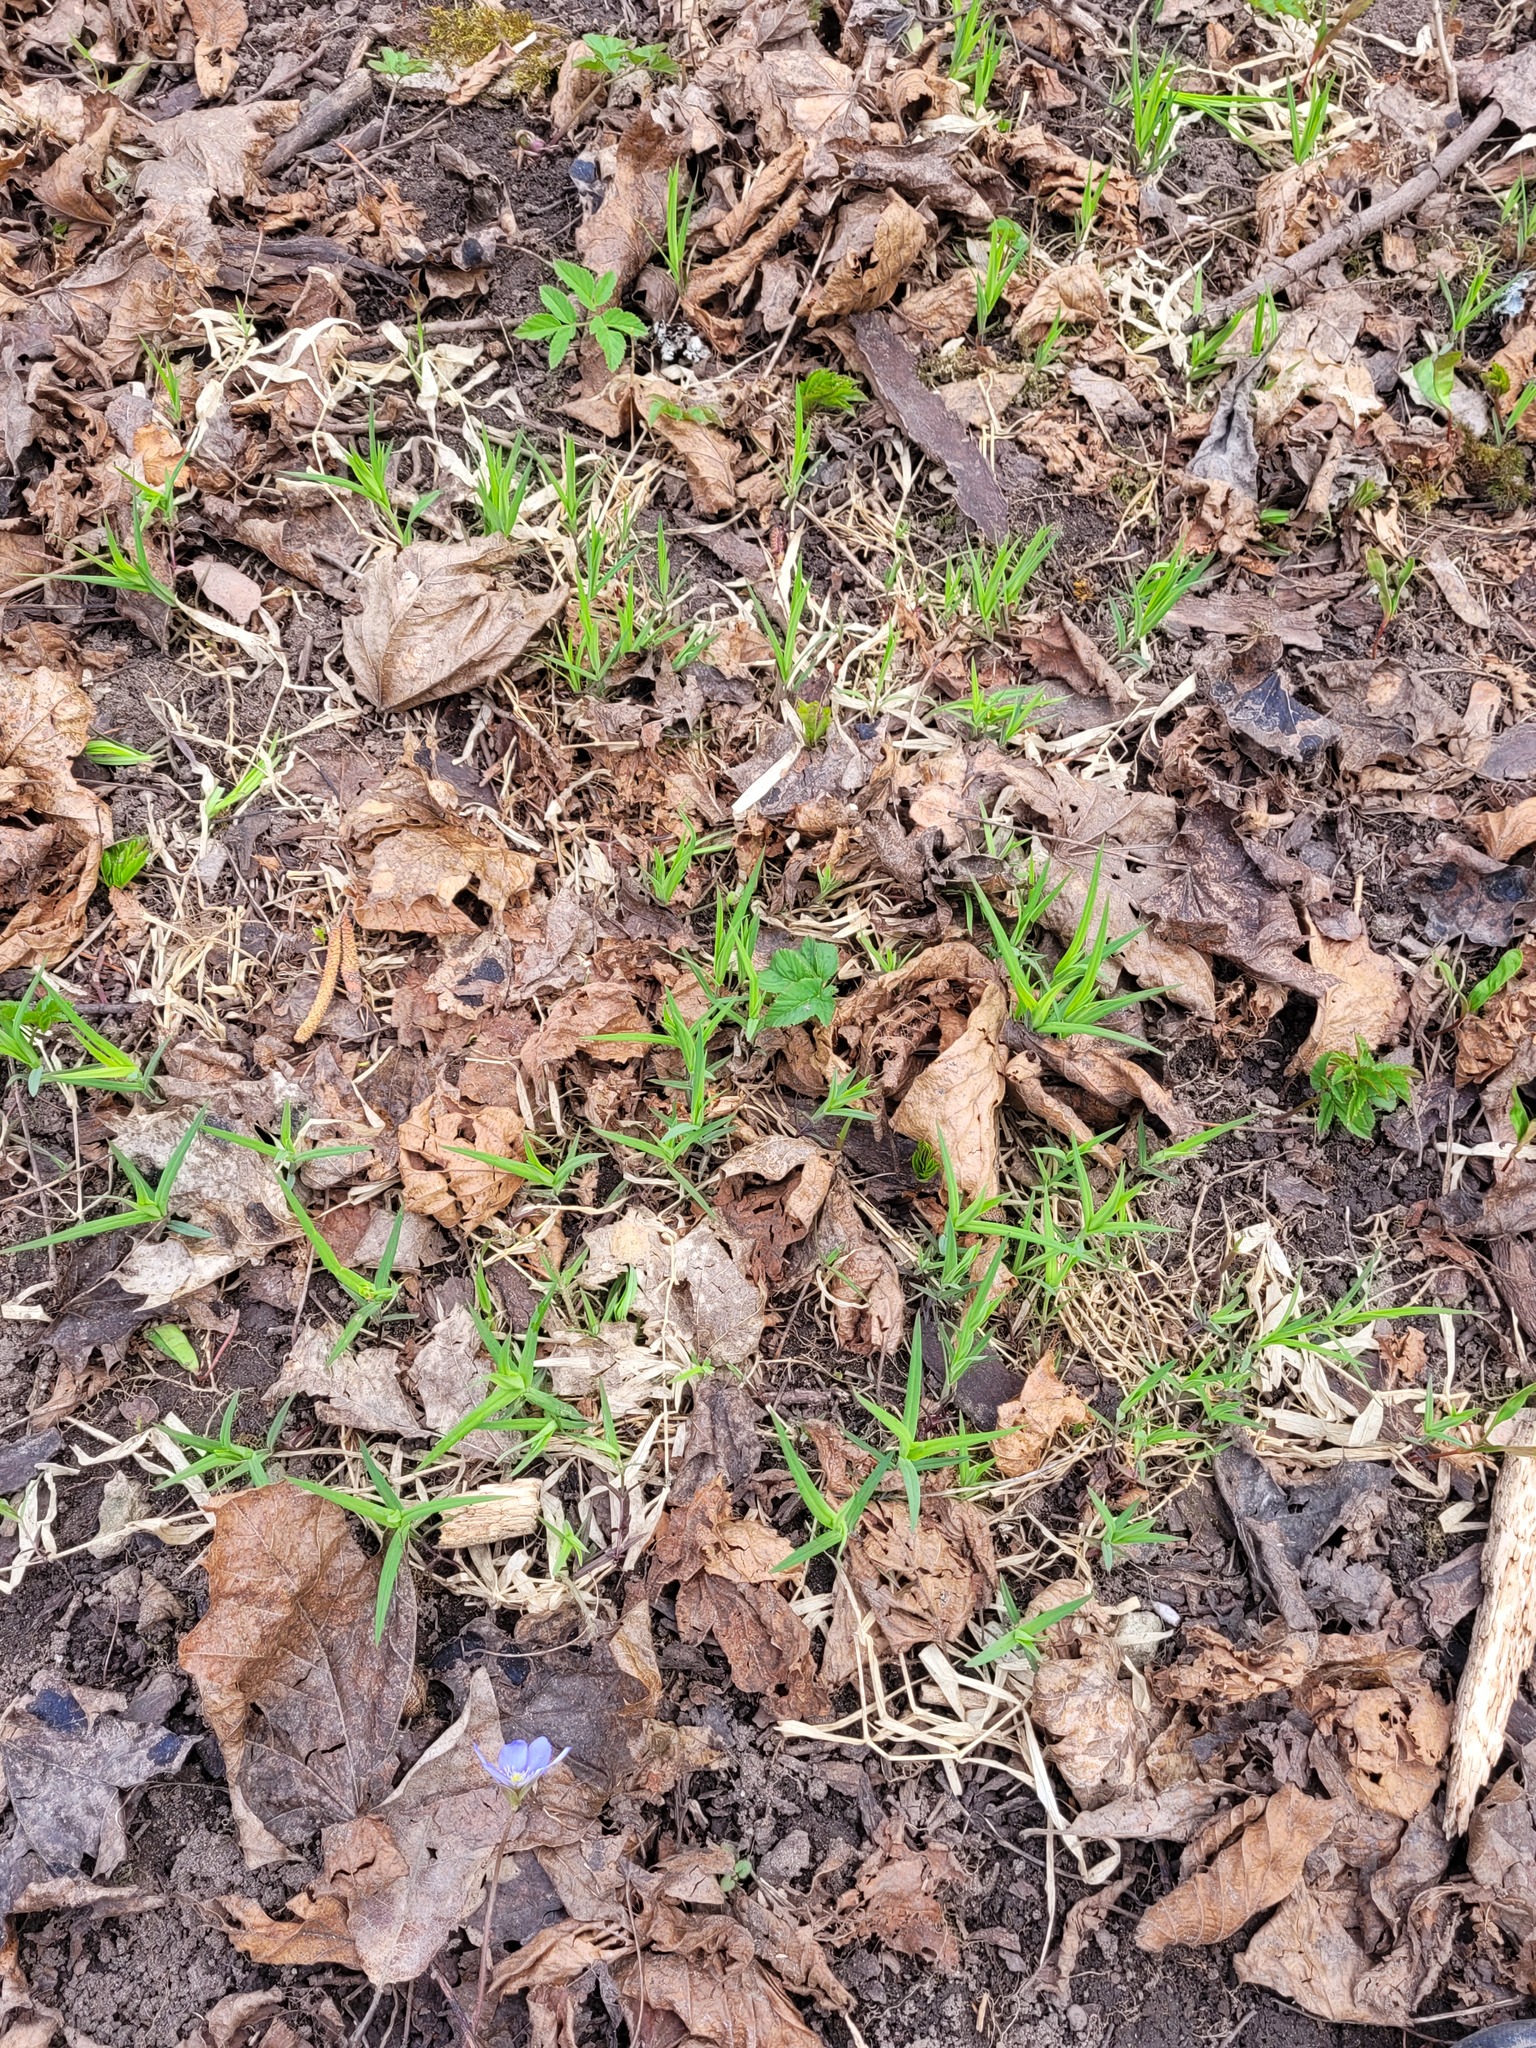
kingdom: Plantae
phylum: Tracheophyta
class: Magnoliopsida
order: Caryophyllales
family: Caryophyllaceae
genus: Rabelera
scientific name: Rabelera holostea
